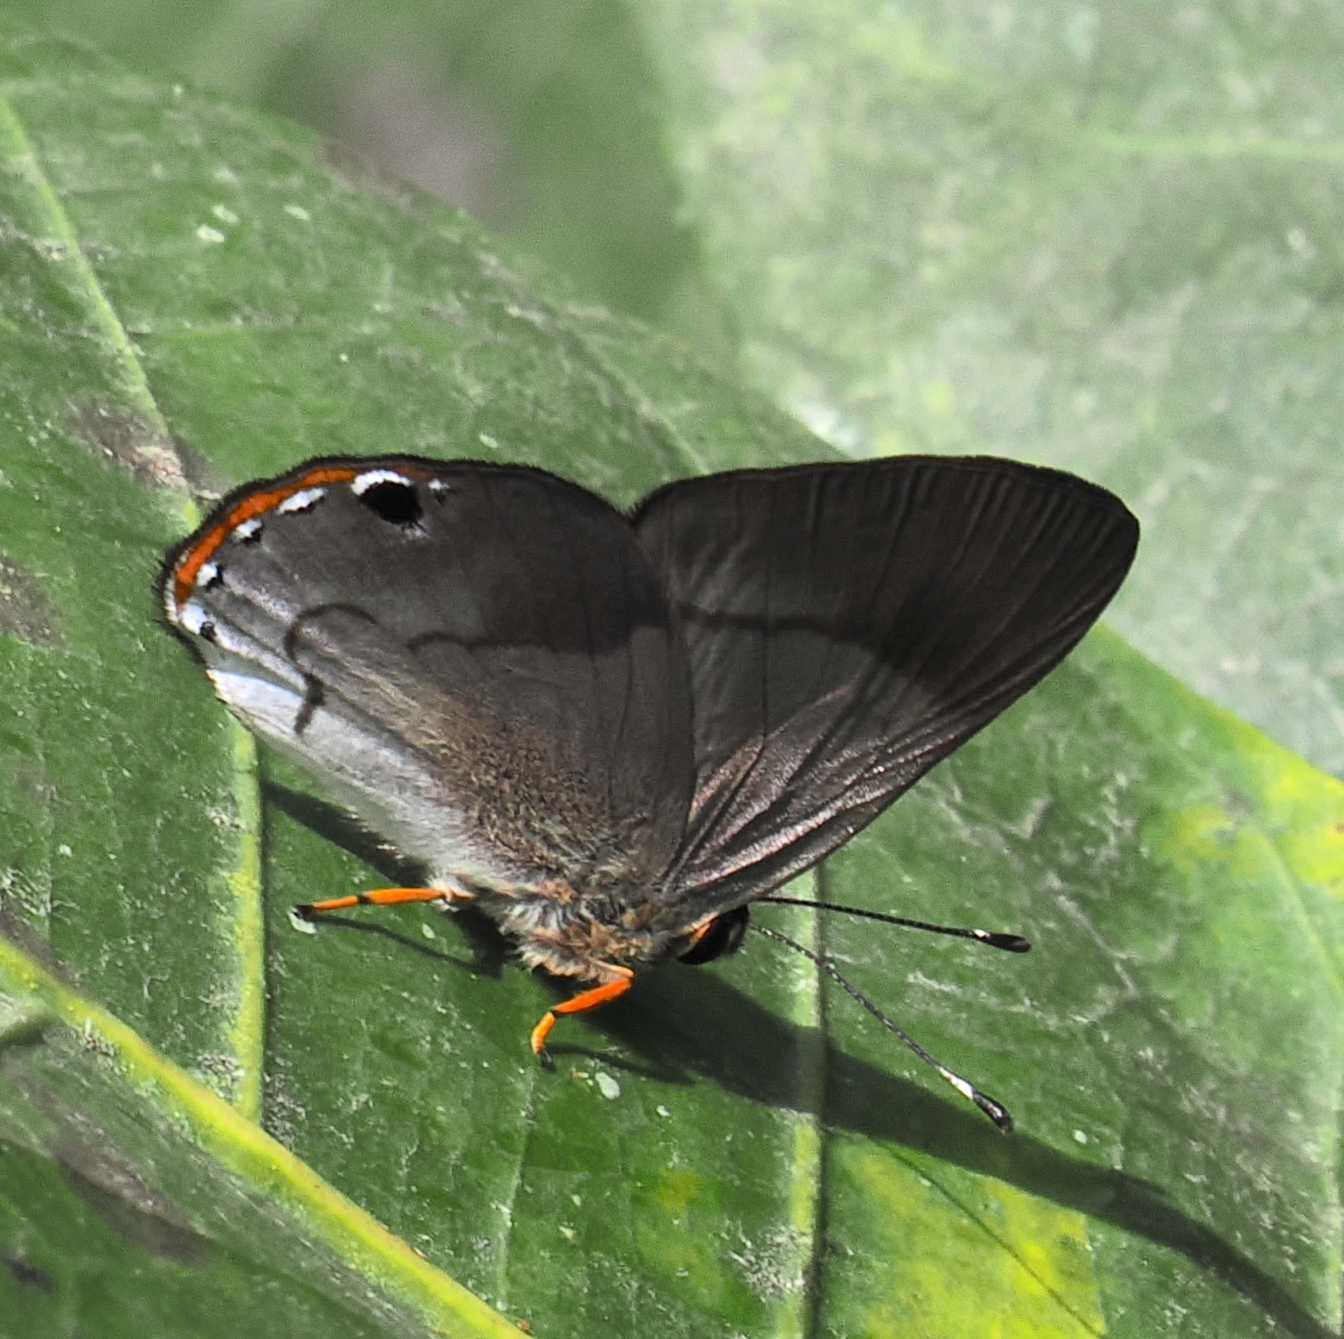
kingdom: Animalia
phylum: Arthropoda
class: Insecta
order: Lepidoptera
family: Riodinidae
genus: Methone
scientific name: Methone
